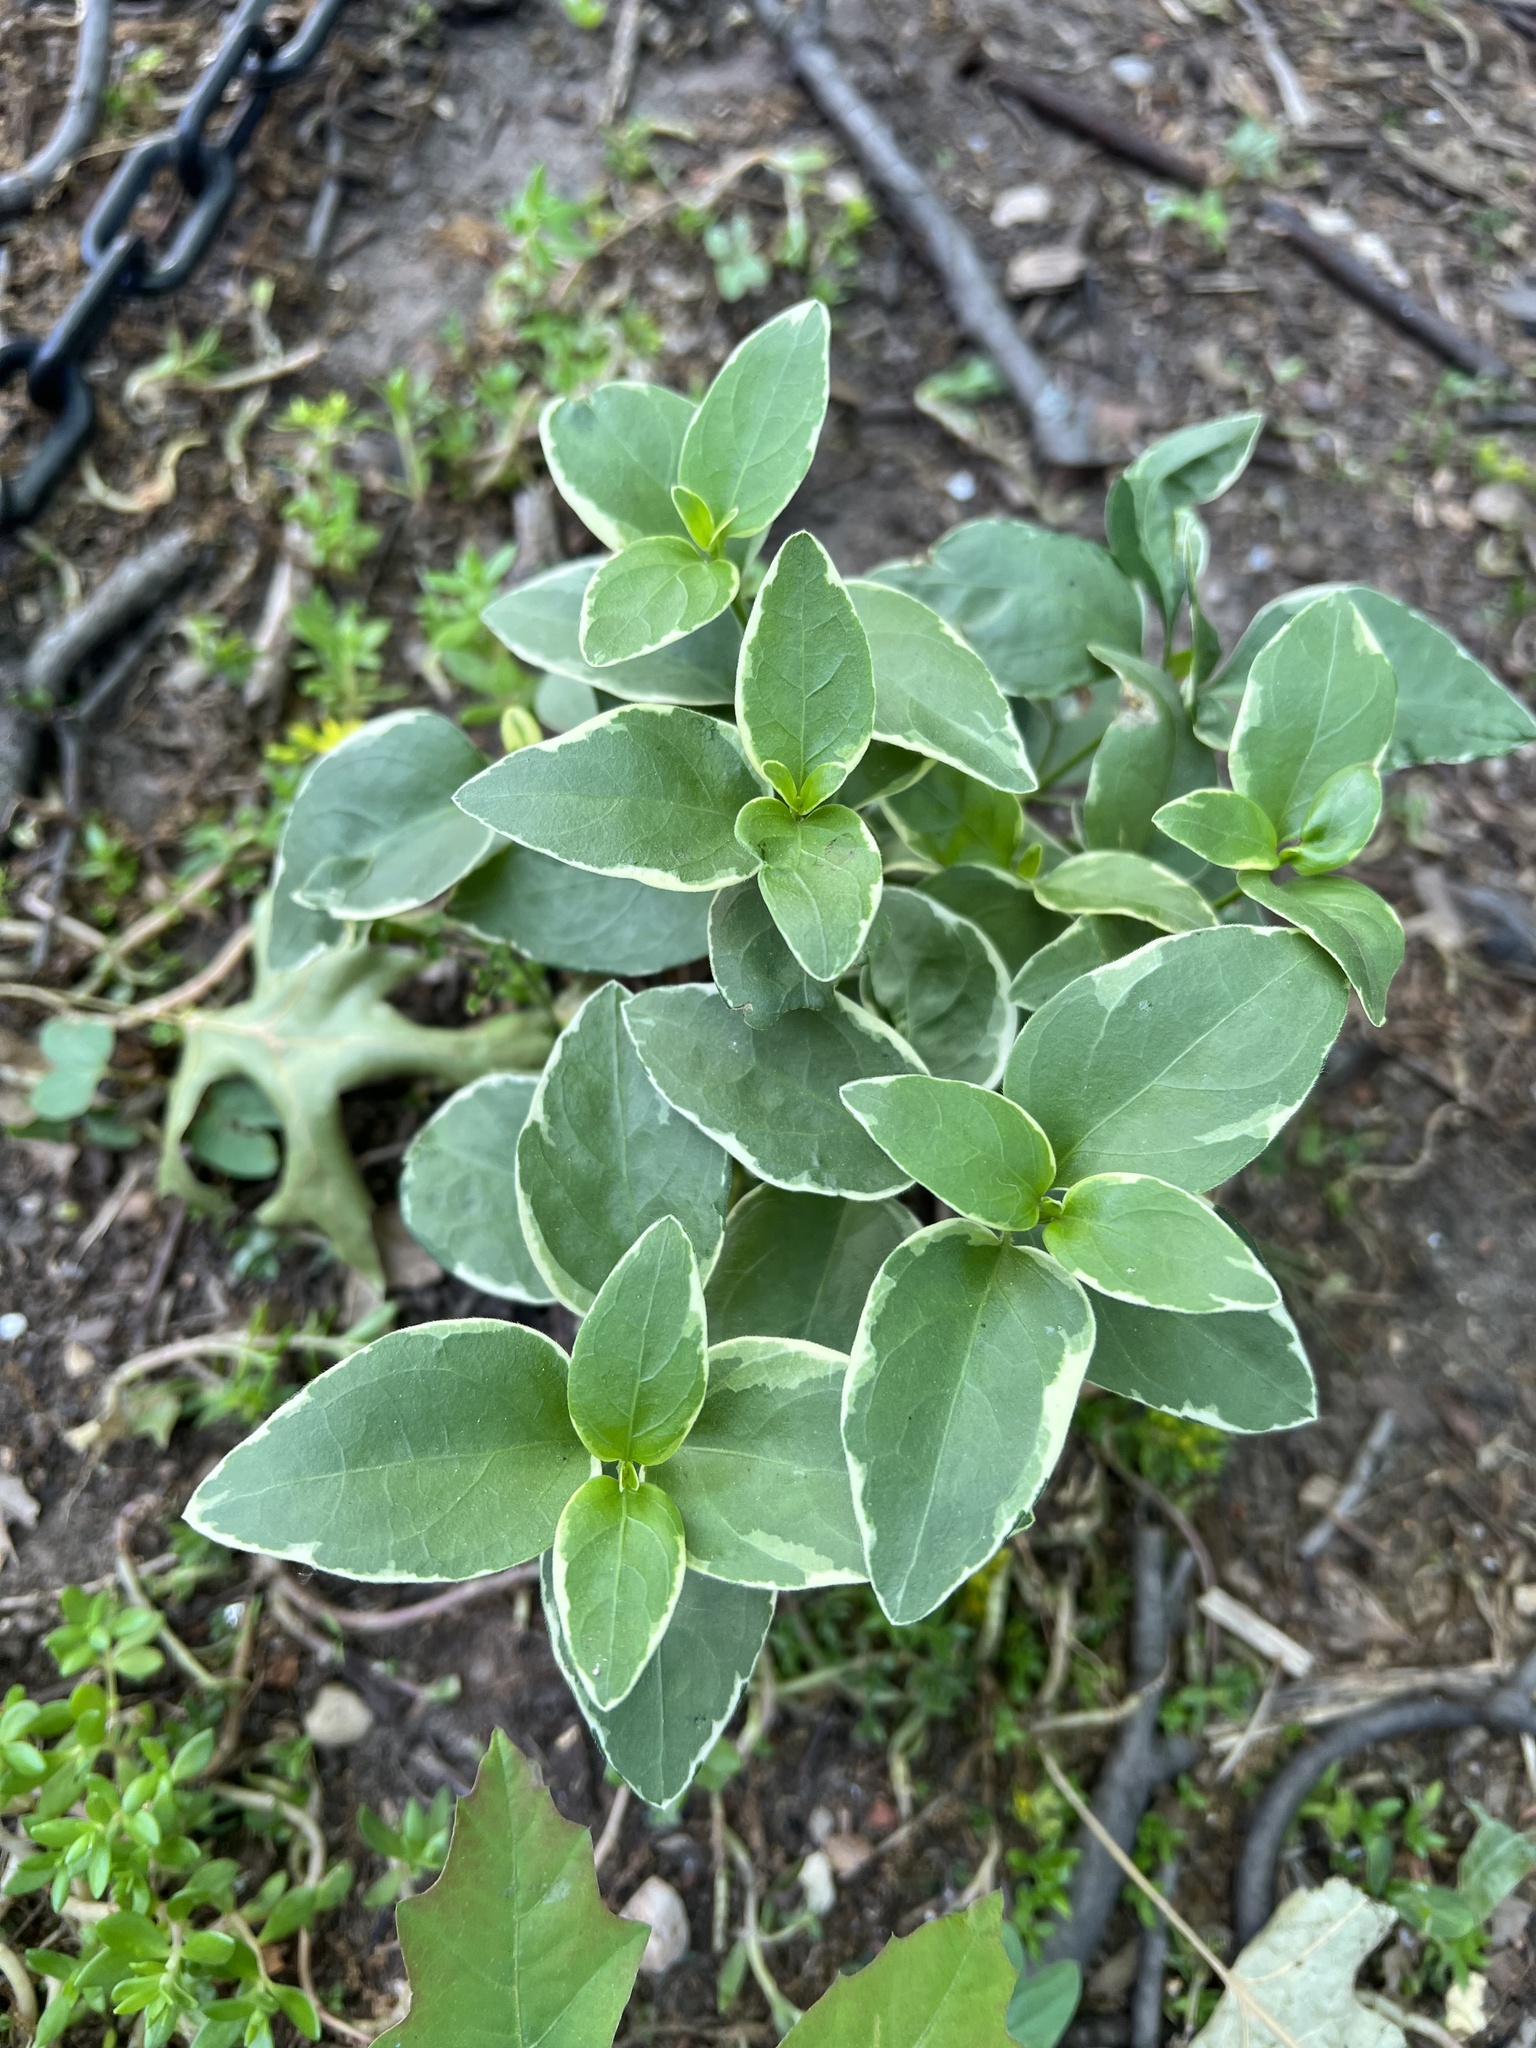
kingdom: Plantae
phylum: Tracheophyta
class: Magnoliopsida
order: Gentianales
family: Apocynaceae
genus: Vinca
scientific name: Vinca major
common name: Greater periwinkle
